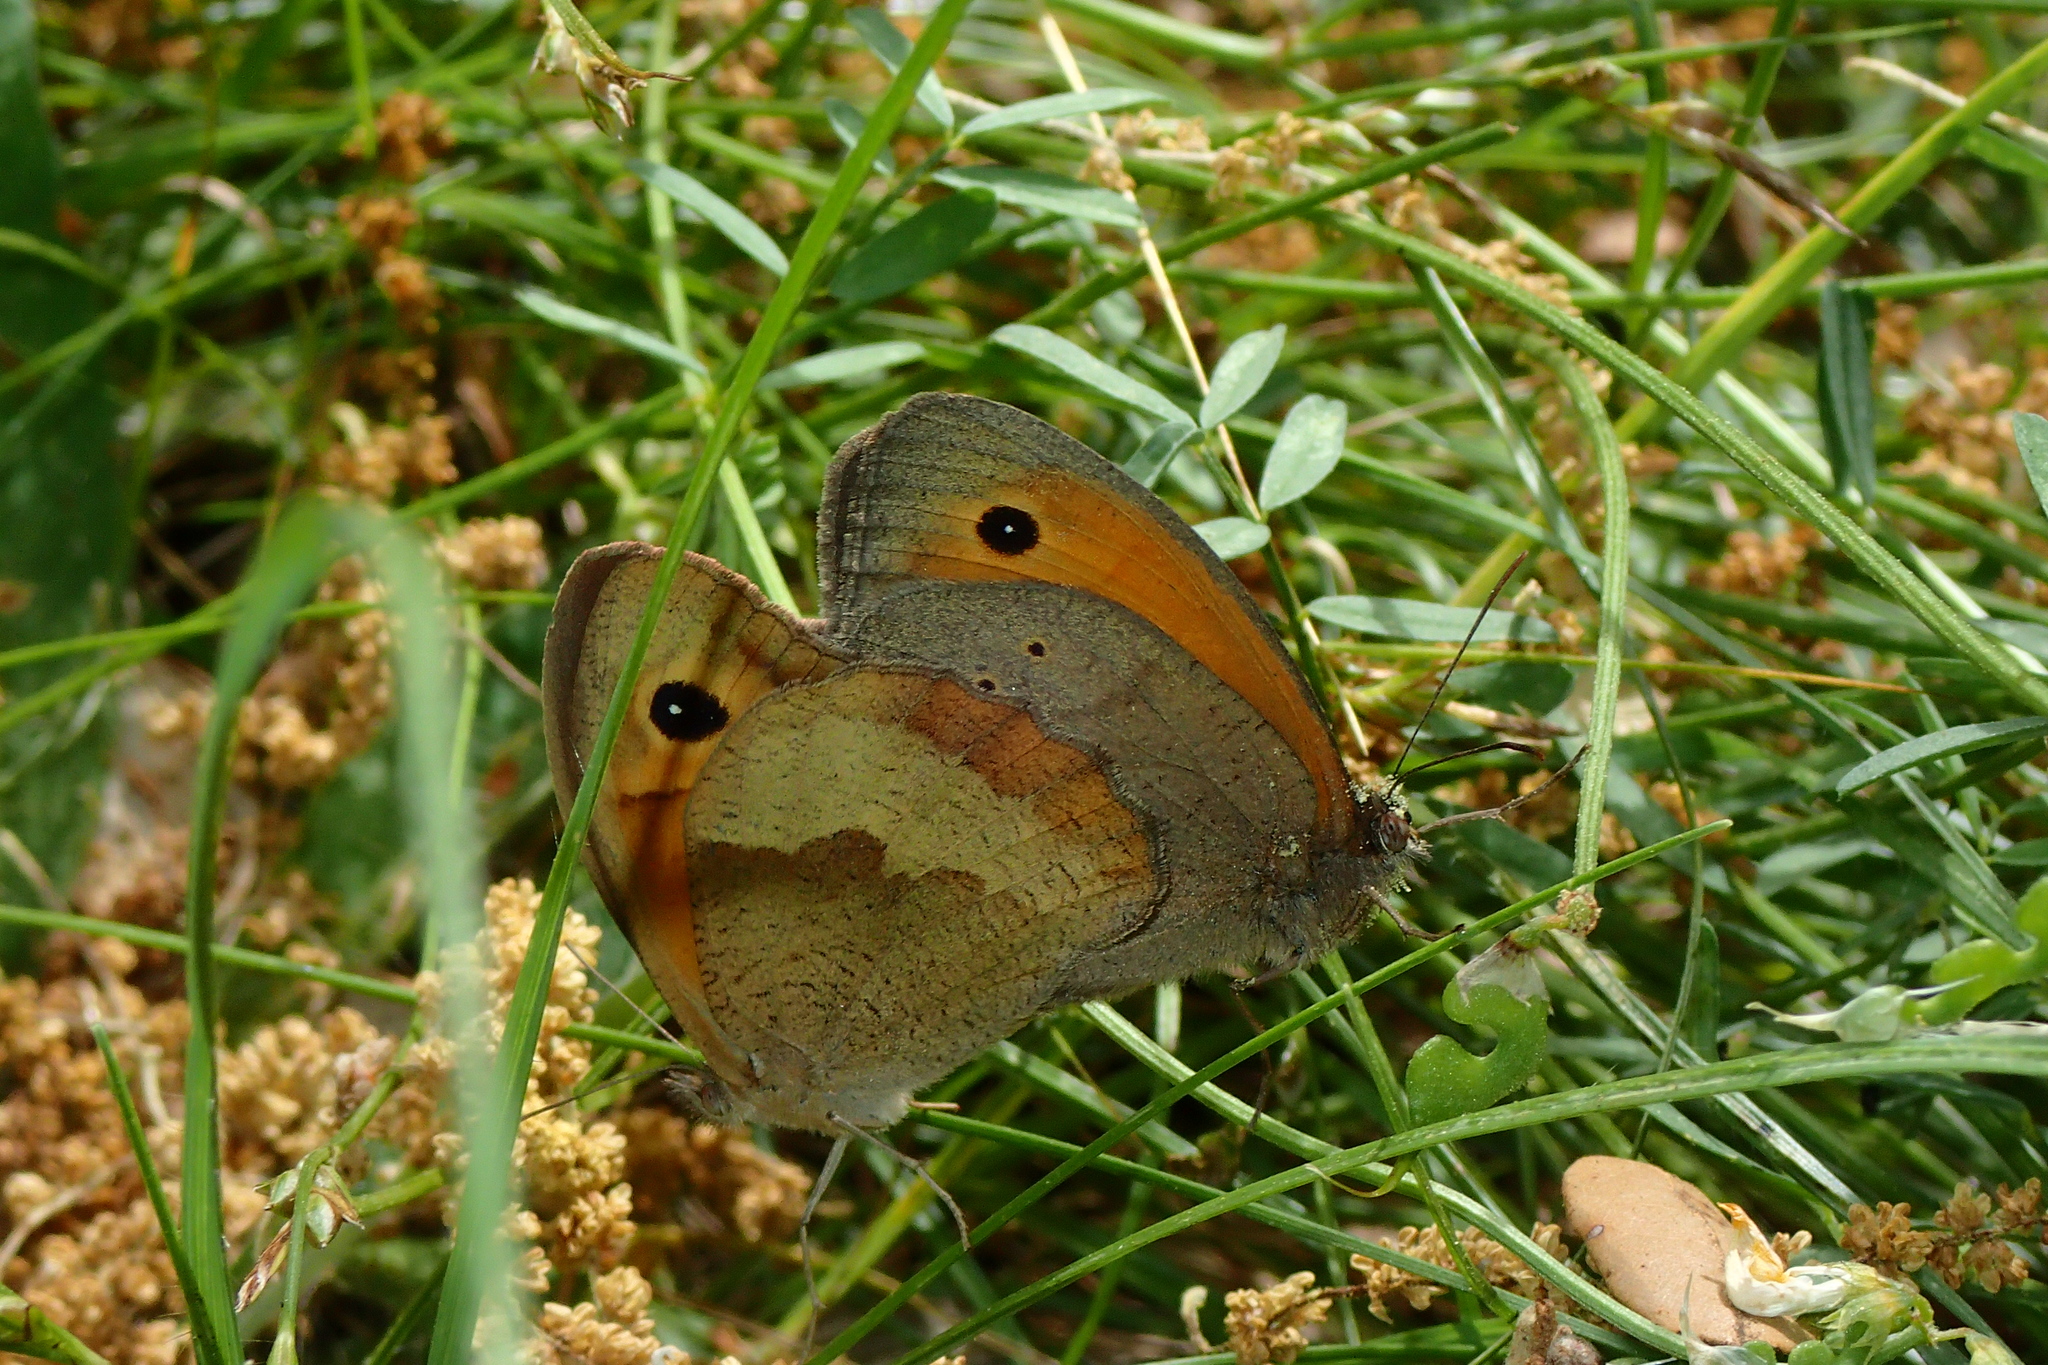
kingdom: Animalia
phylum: Arthropoda
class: Insecta
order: Lepidoptera
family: Nymphalidae
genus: Maniola
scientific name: Maniola jurtina
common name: Meadow brown
